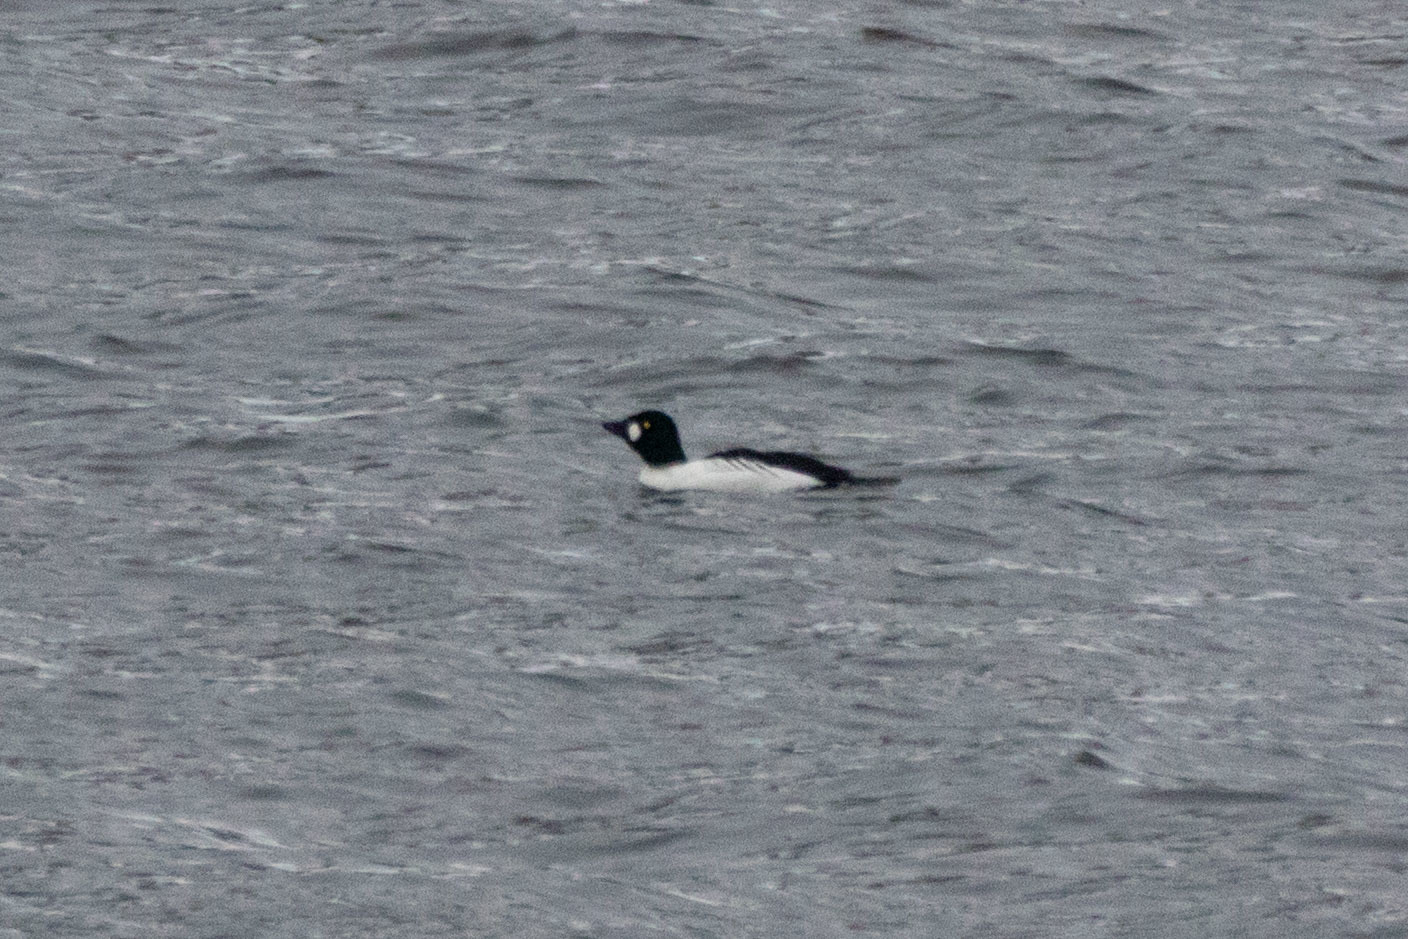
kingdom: Animalia
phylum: Chordata
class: Aves
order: Anseriformes
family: Anatidae
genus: Bucephala
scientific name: Bucephala clangula
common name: Common goldeneye
